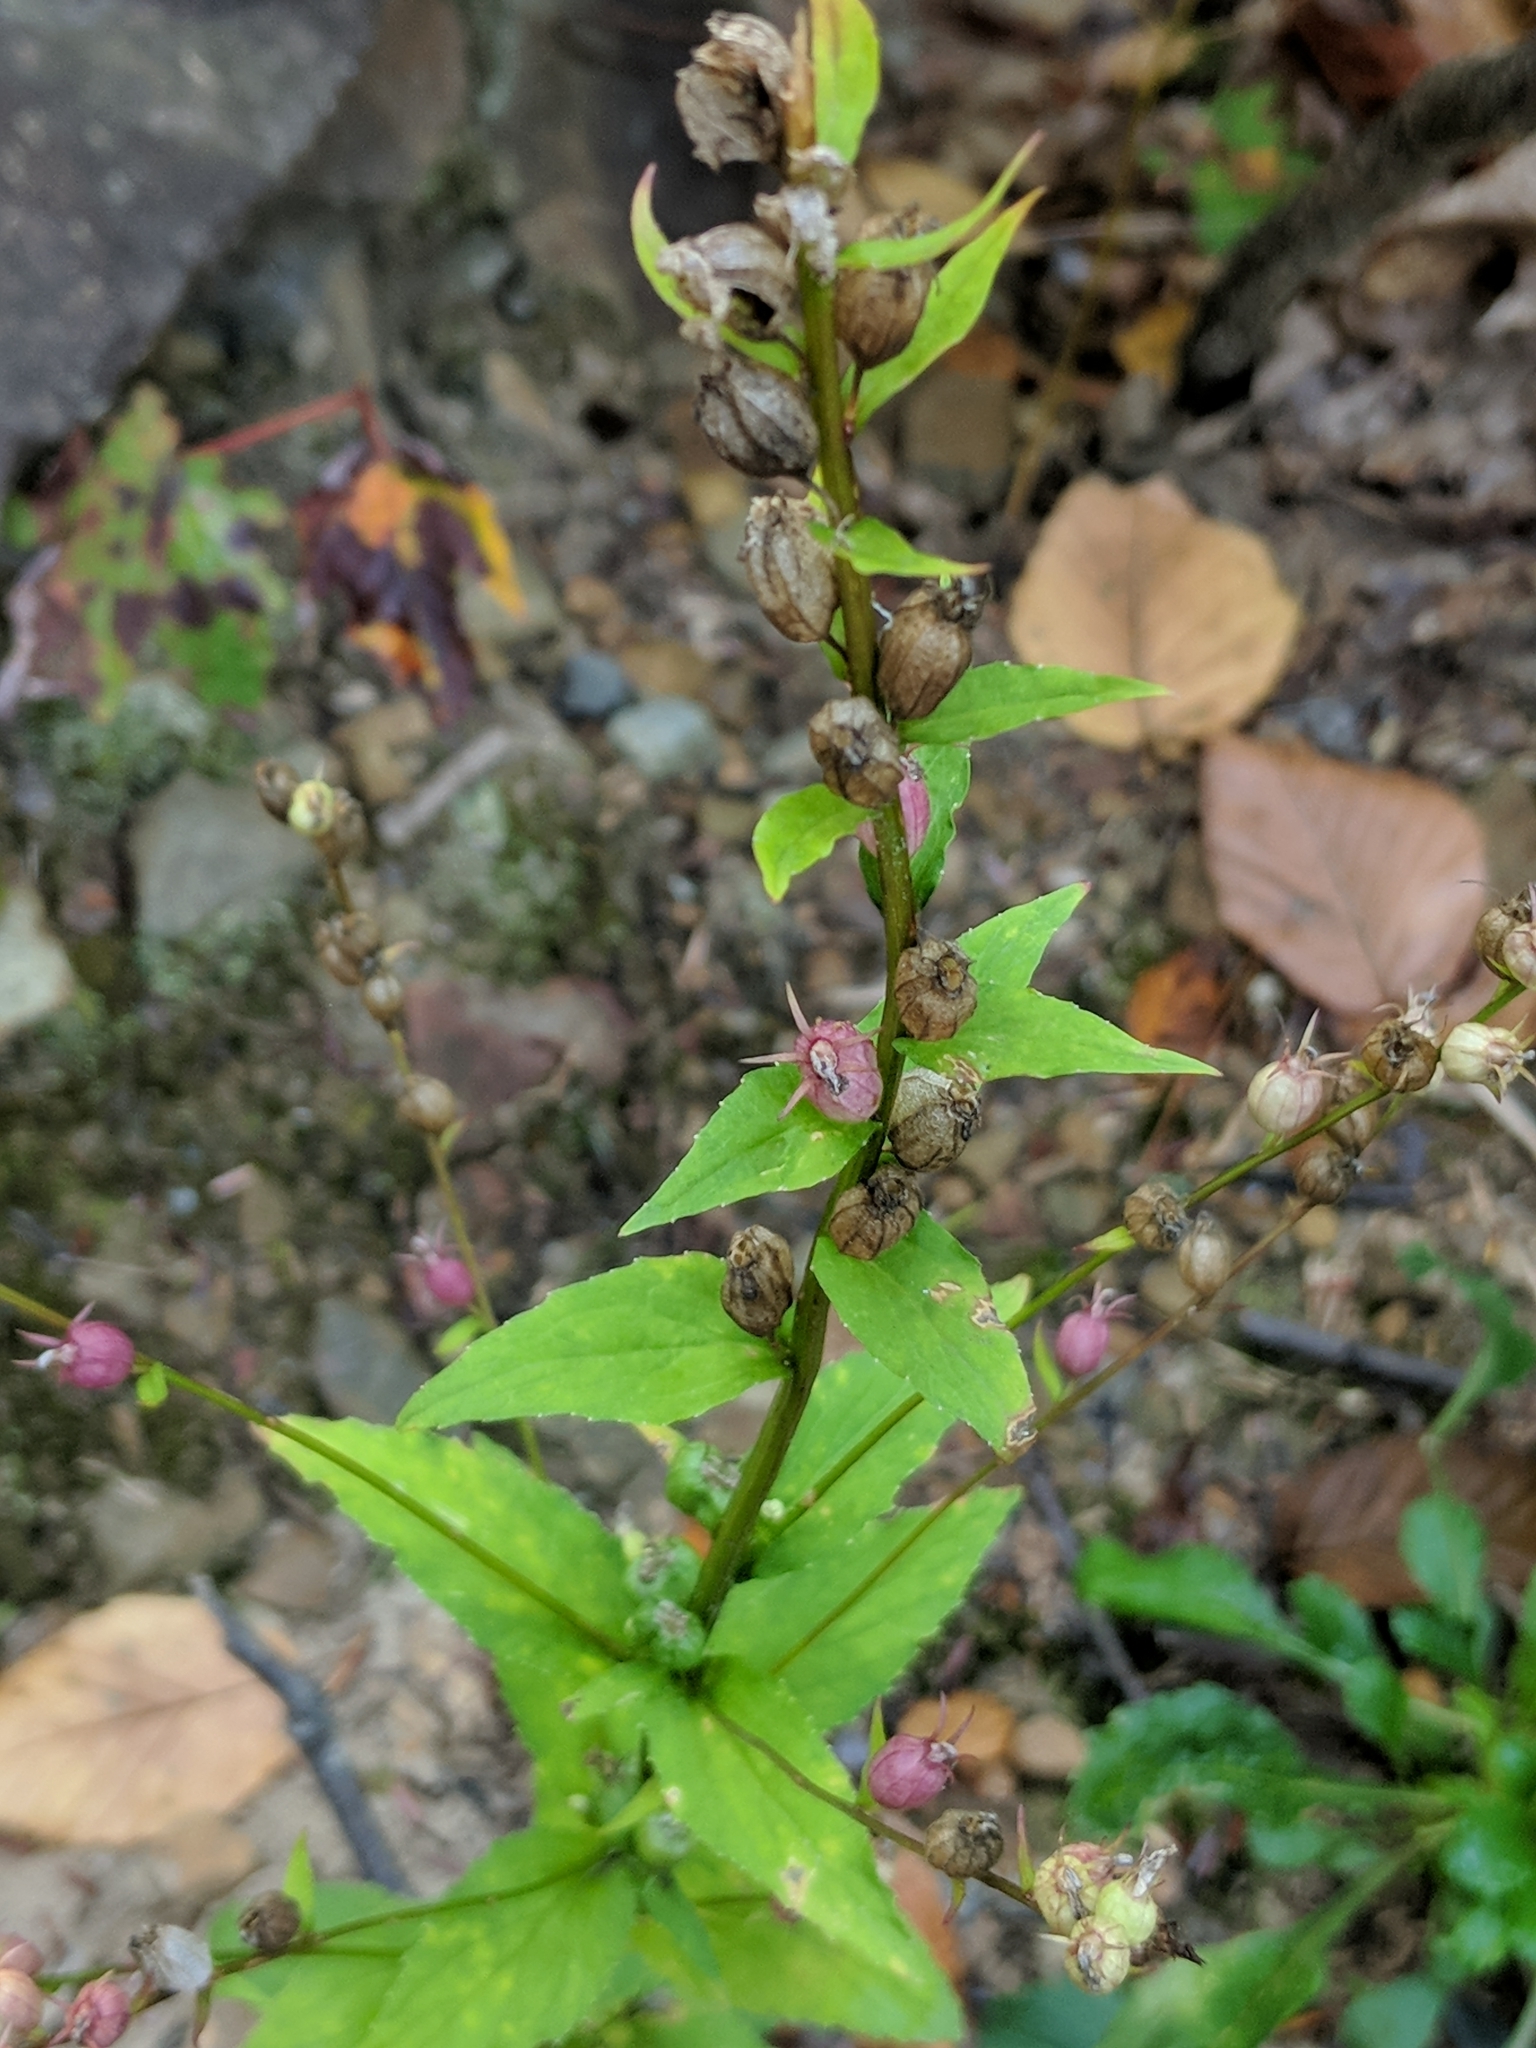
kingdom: Plantae
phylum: Tracheophyta
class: Magnoliopsida
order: Asterales
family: Campanulaceae
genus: Lobelia
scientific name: Lobelia inflata
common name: Indian tobacco
